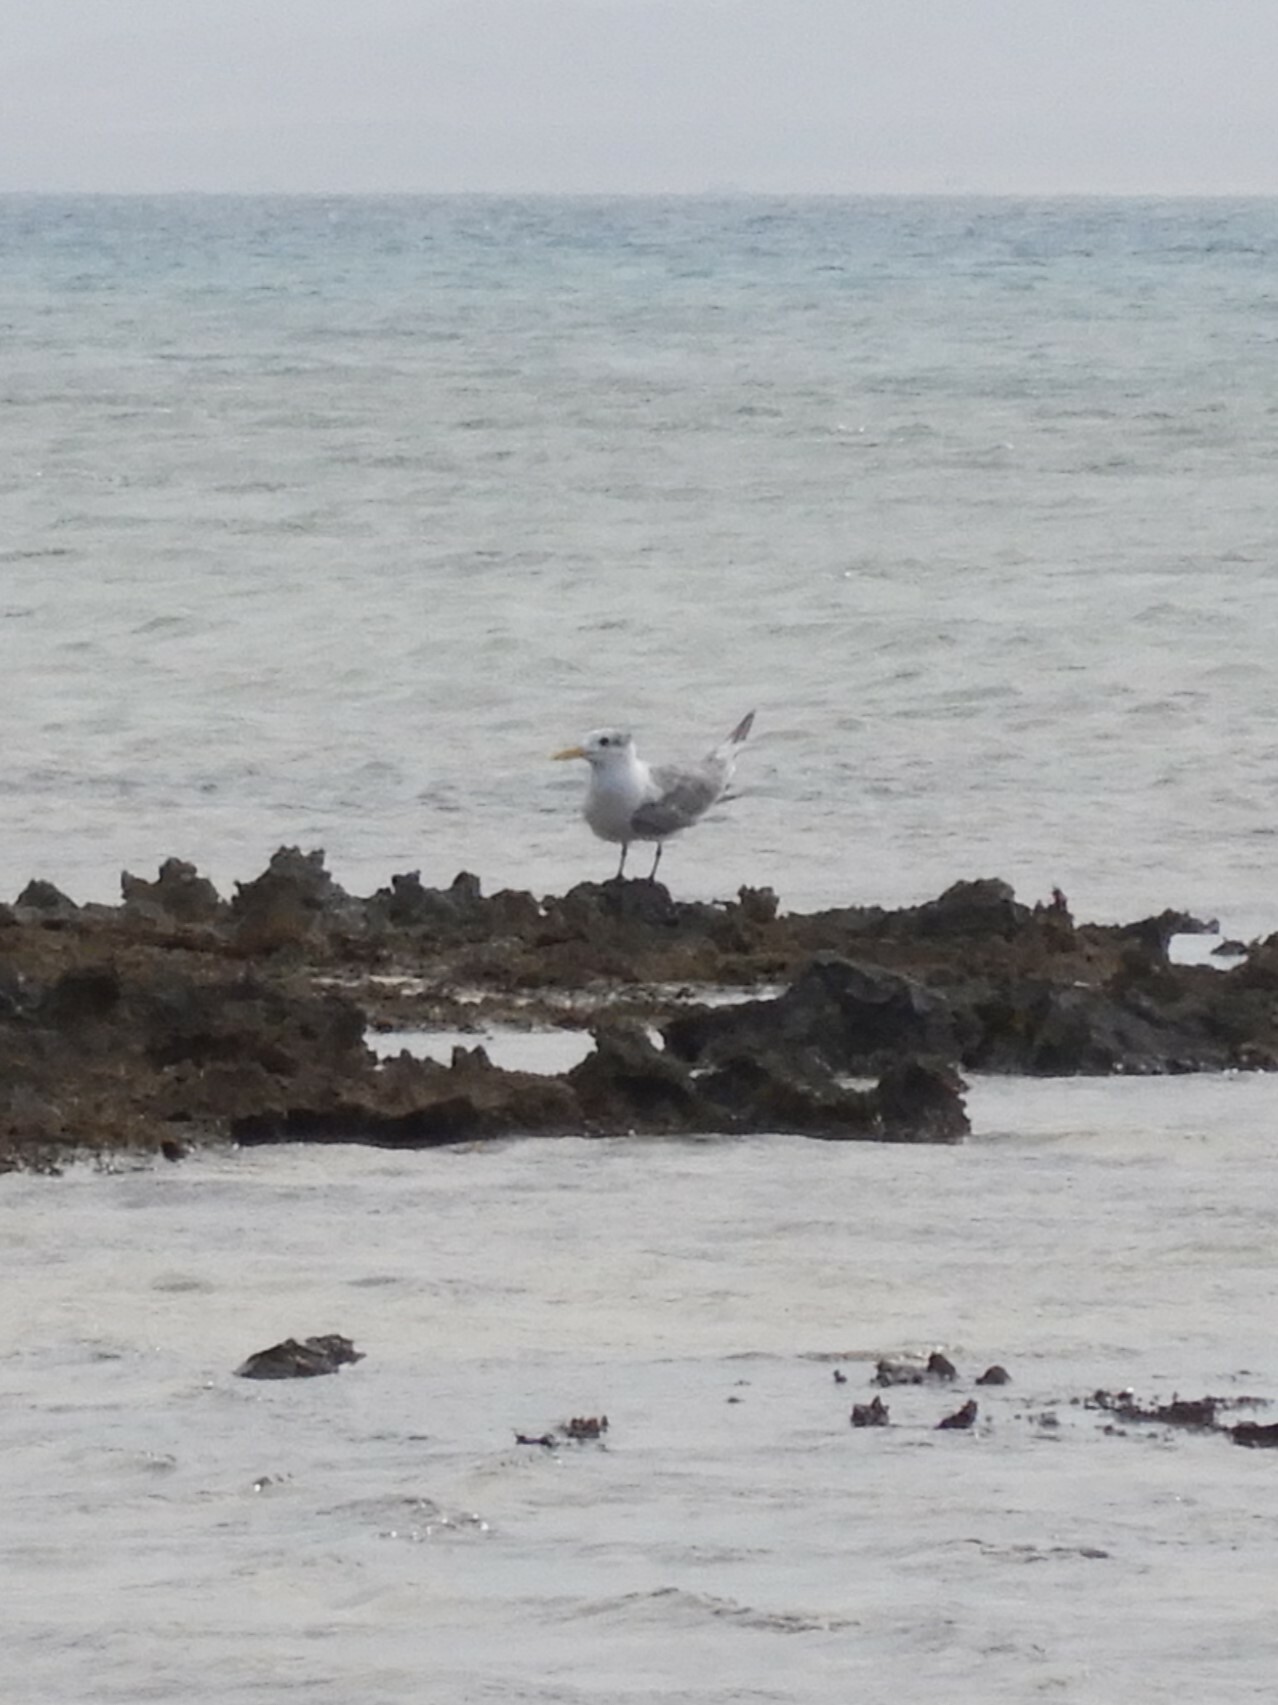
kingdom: Animalia
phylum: Chordata
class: Aves
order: Charadriiformes
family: Laridae
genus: Thalasseus
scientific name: Thalasseus bergii
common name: Greater crested tern
